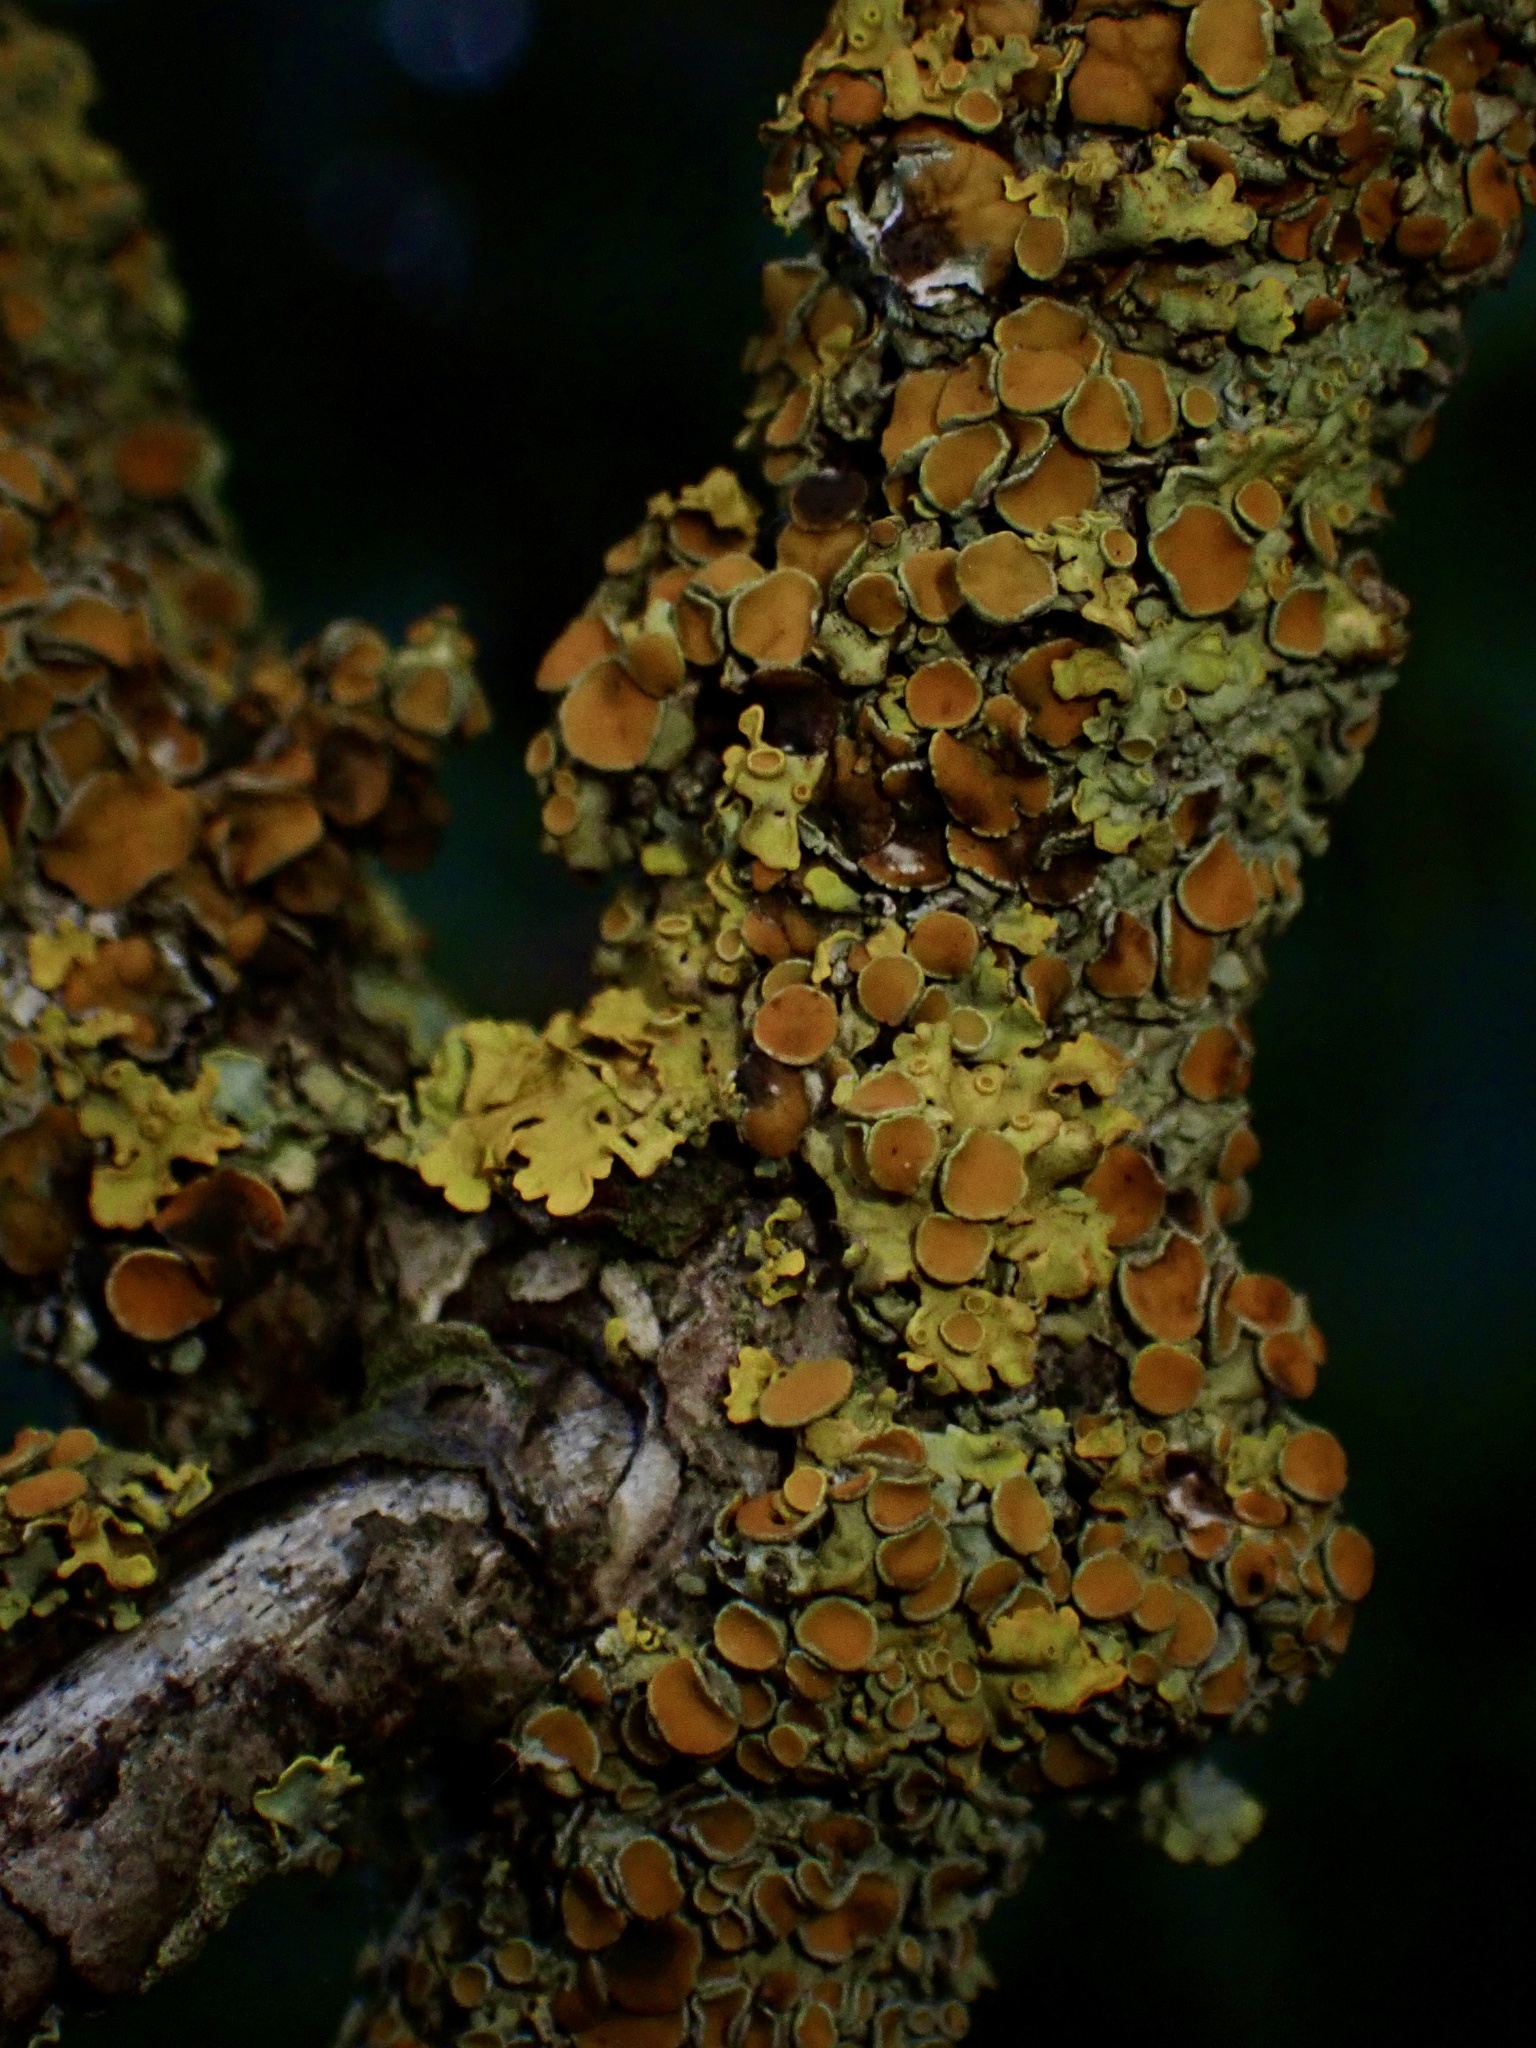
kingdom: Fungi
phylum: Ascomycota
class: Lecanoromycetes
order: Teloschistales
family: Teloschistaceae
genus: Xanthoria
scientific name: Xanthoria parietina
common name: Common orange lichen
